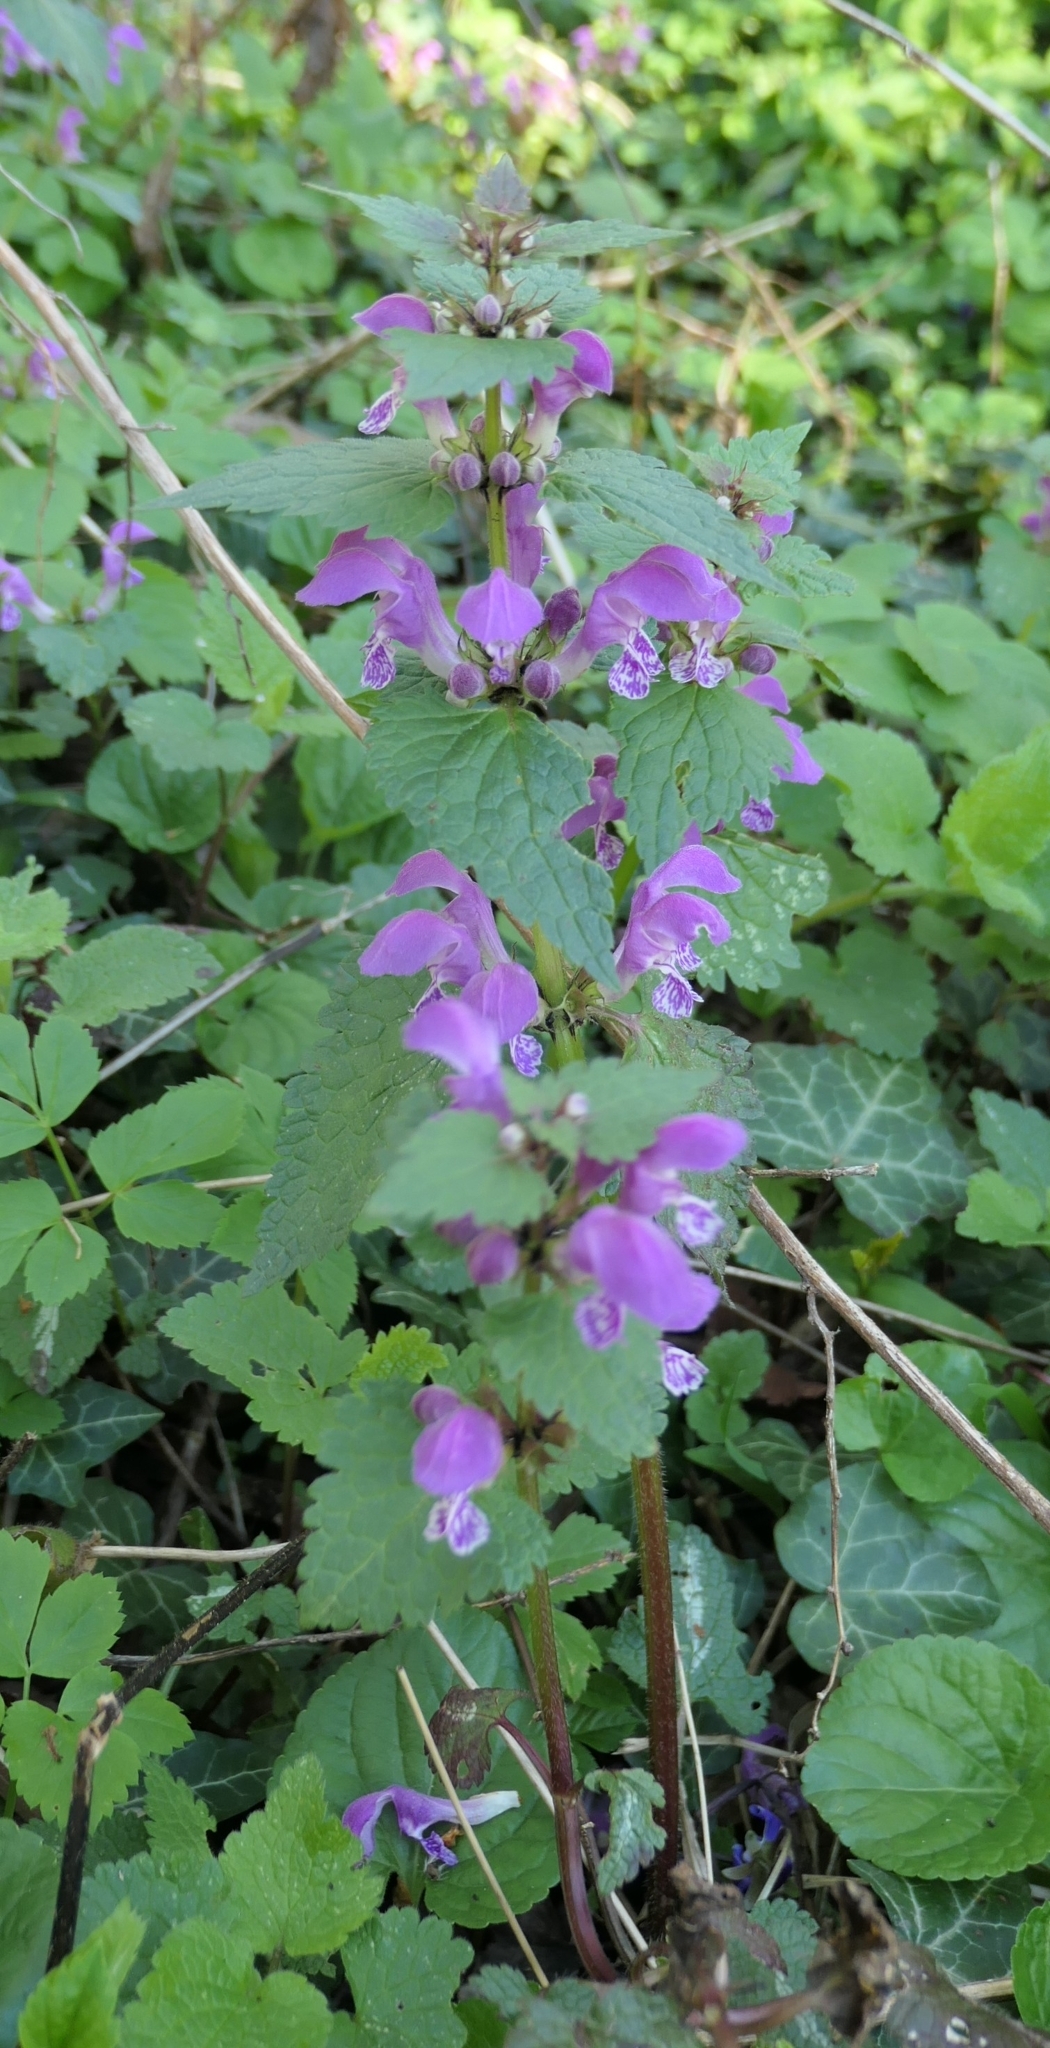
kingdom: Plantae
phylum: Tracheophyta
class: Magnoliopsida
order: Lamiales
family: Lamiaceae
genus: Lamium
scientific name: Lamium maculatum
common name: Spotted dead-nettle
